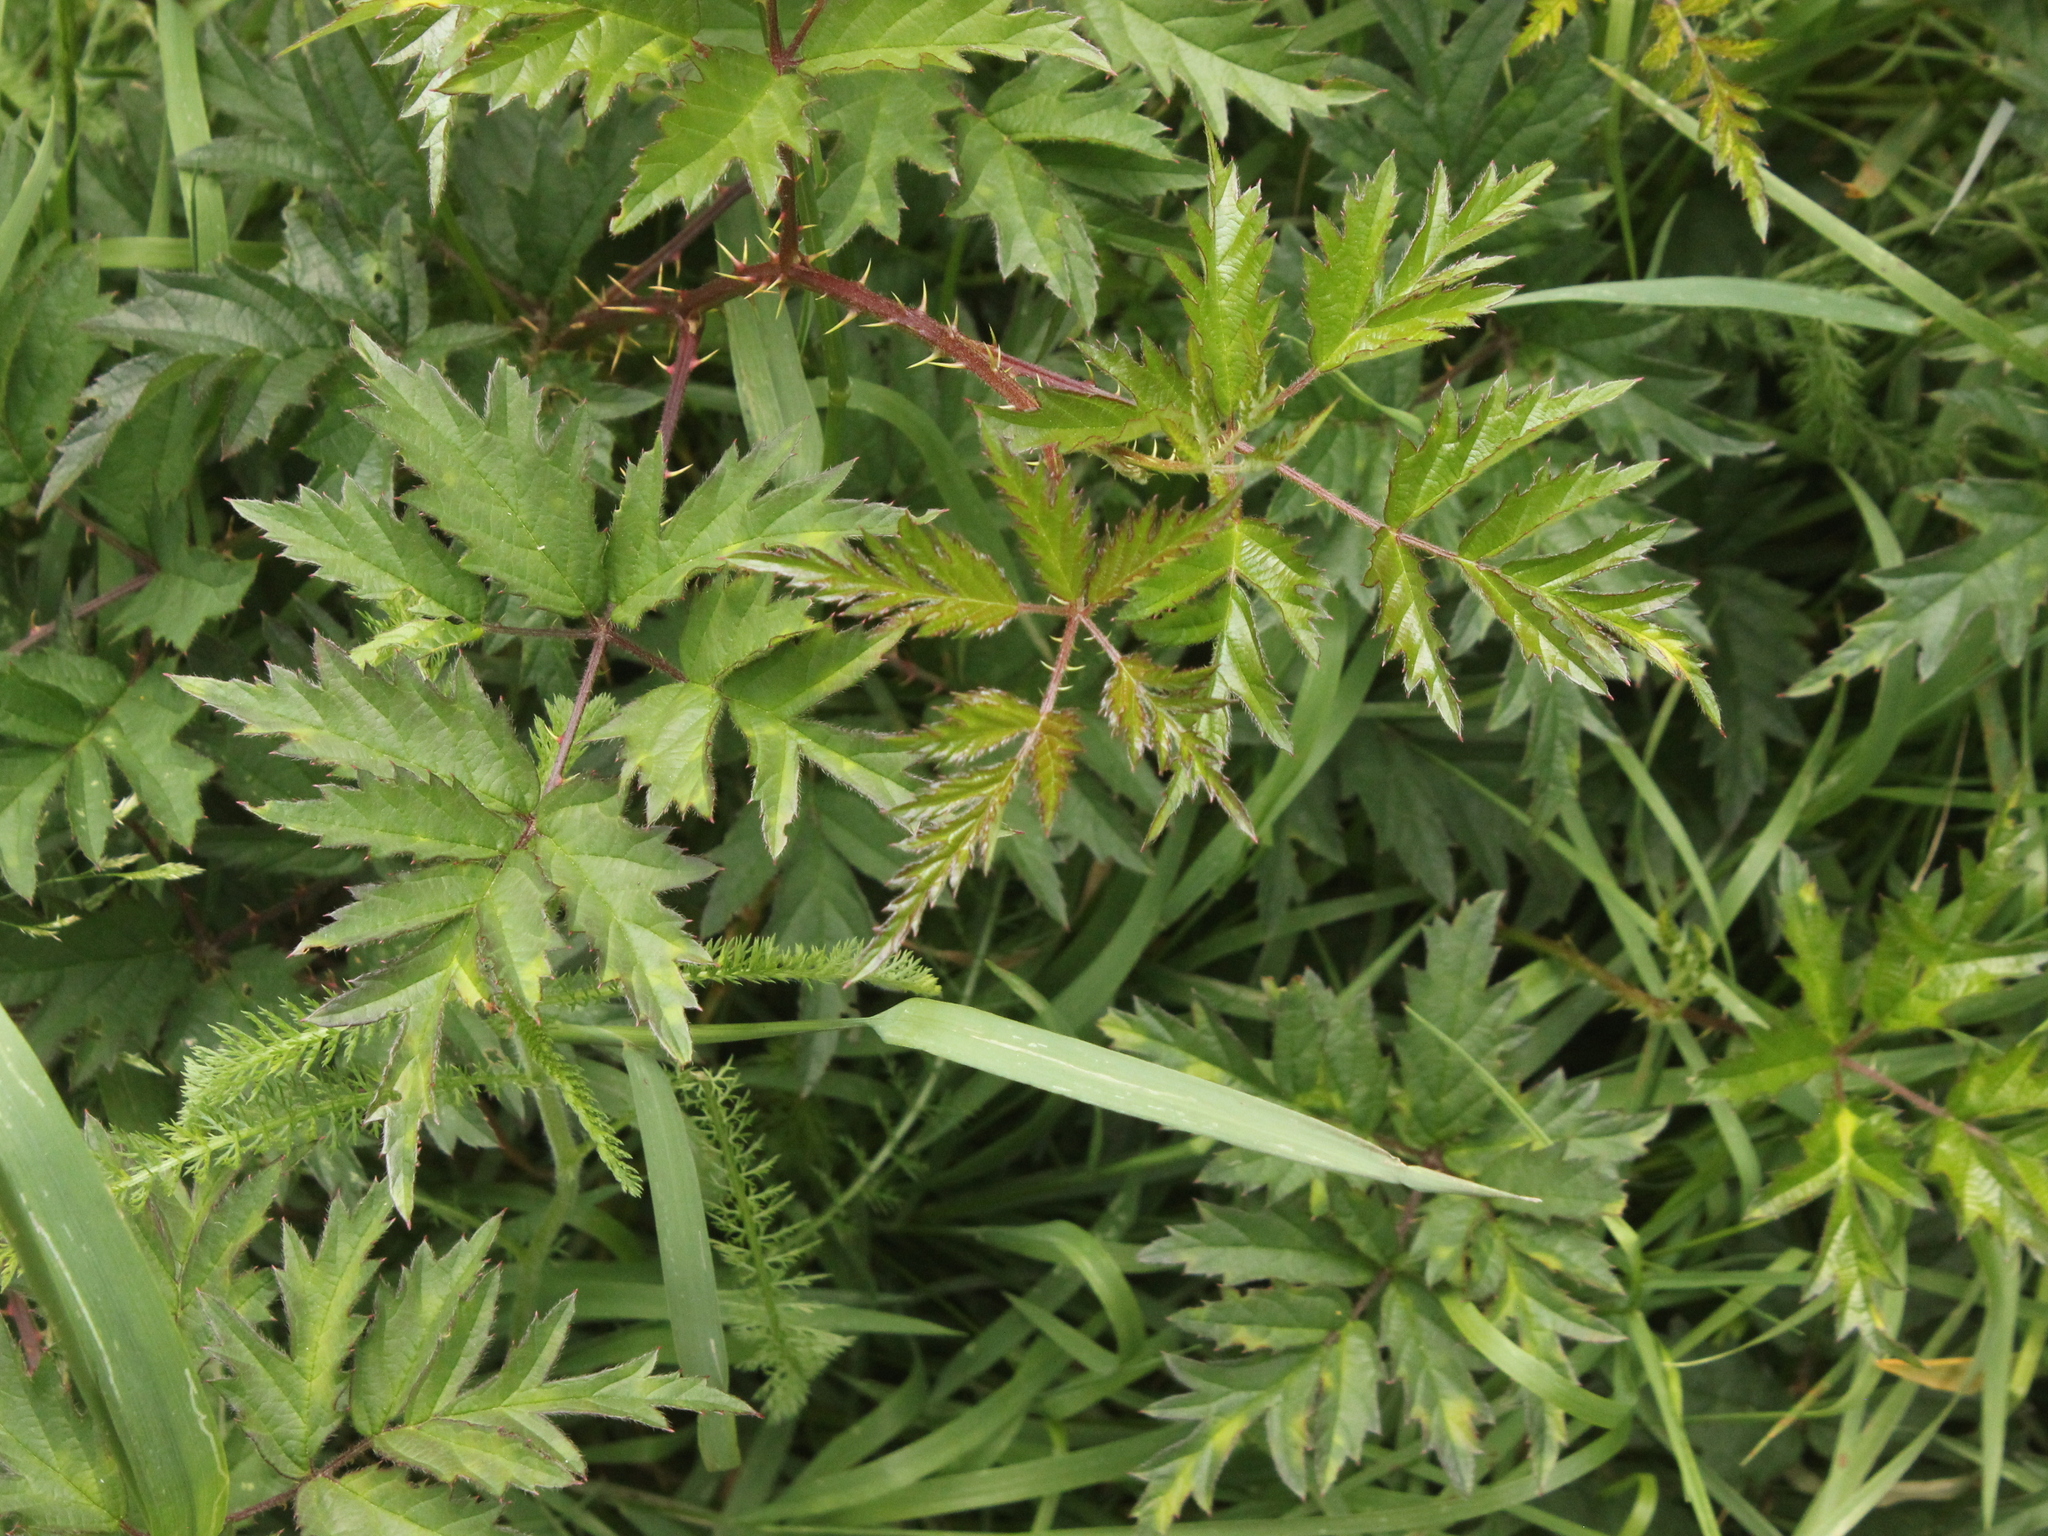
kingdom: Plantae
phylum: Tracheophyta
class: Magnoliopsida
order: Rosales
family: Rosaceae
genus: Rubus
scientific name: Rubus laciniatus
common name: Evergreen blackberry
